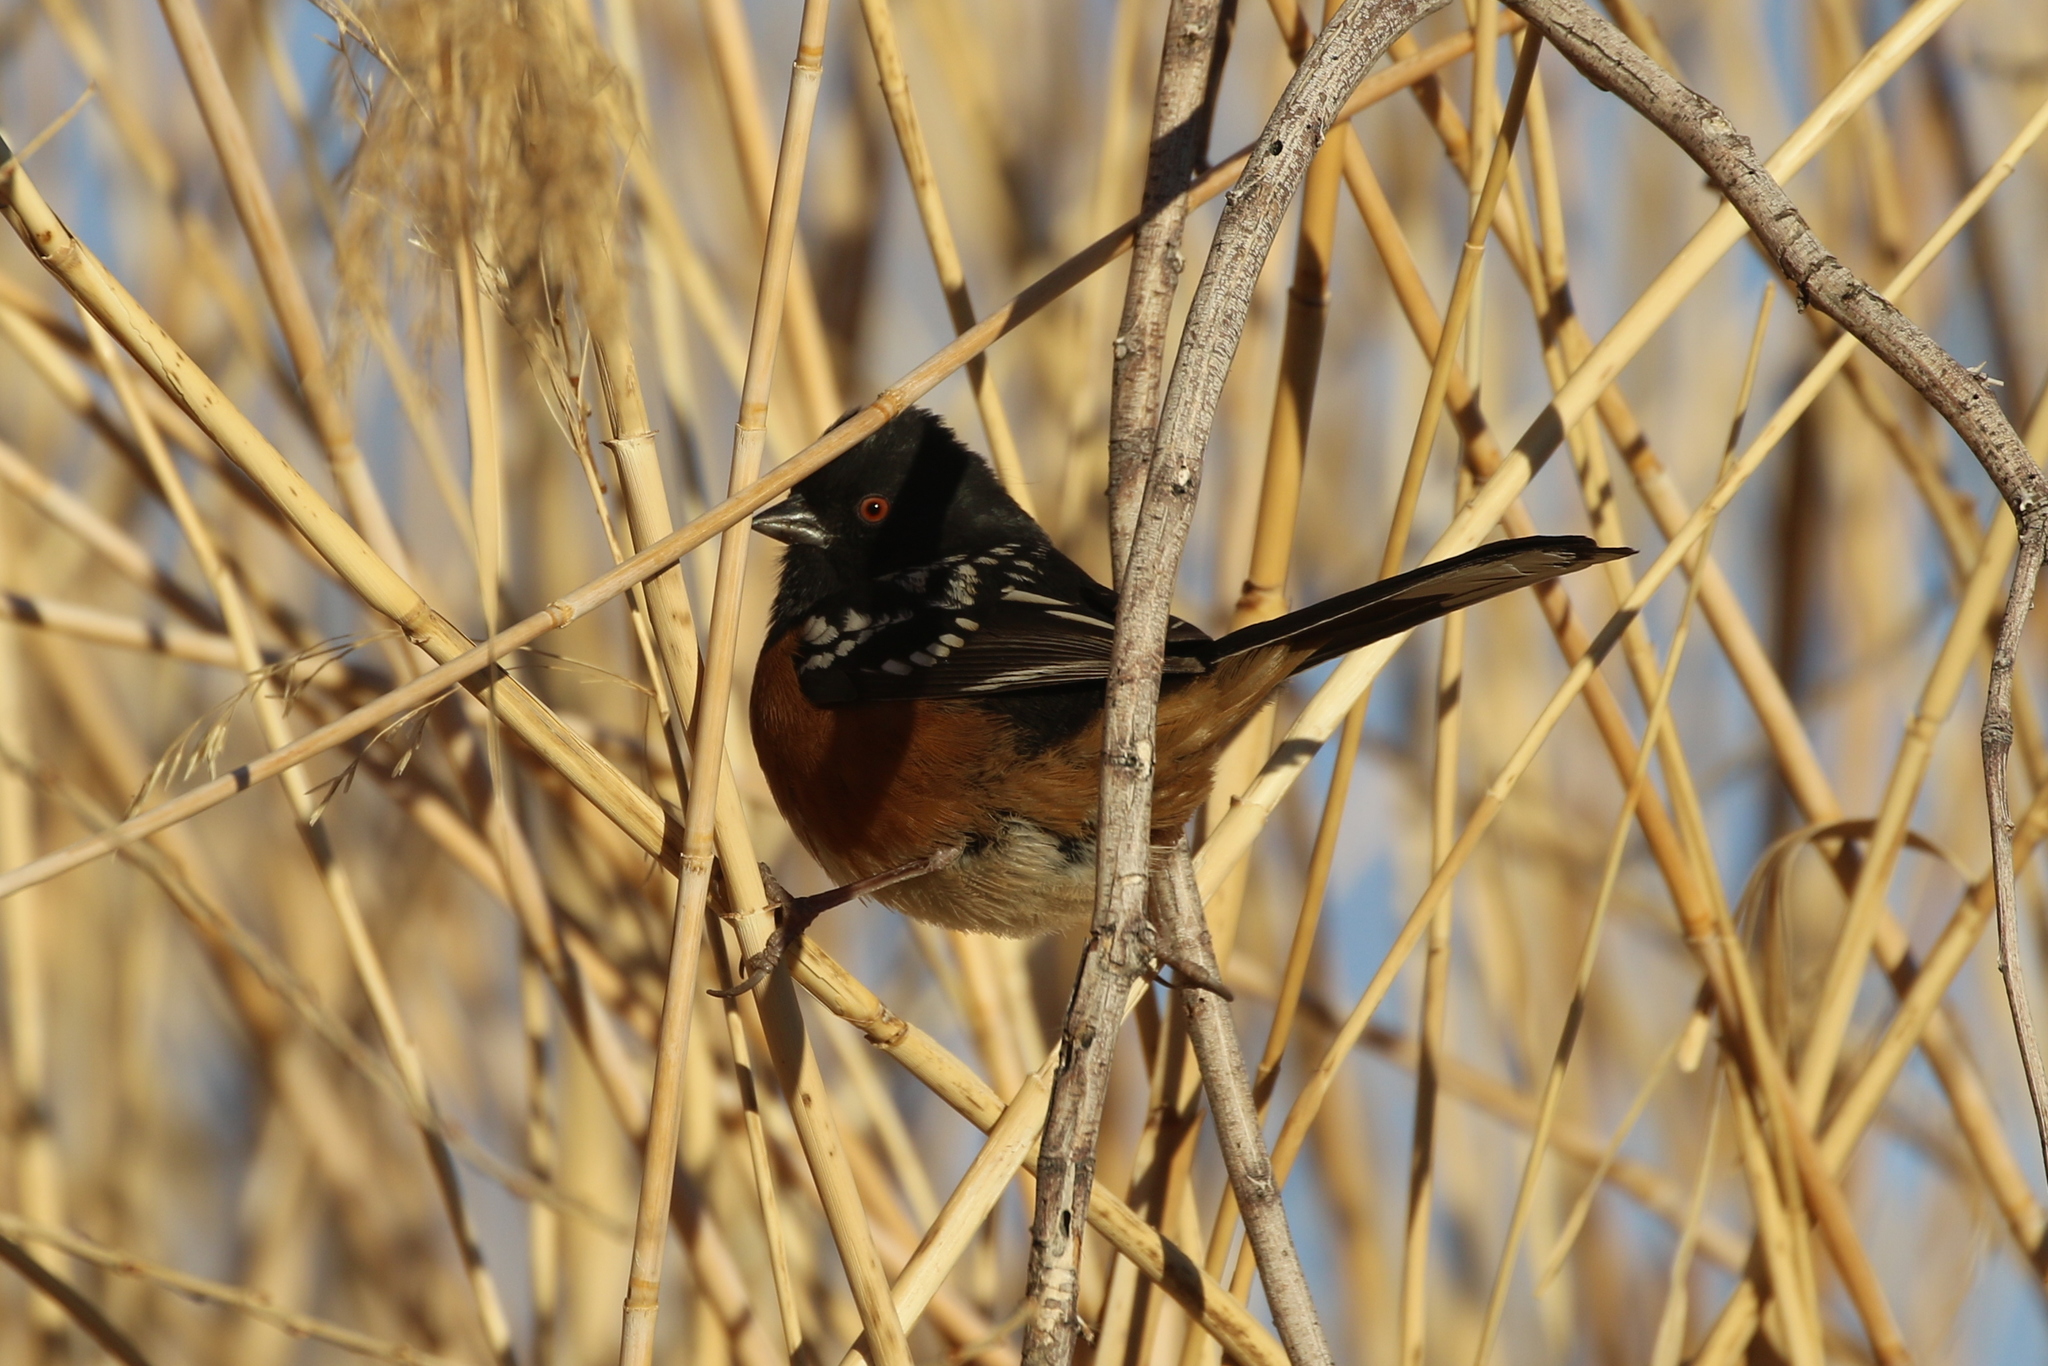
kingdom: Animalia
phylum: Chordata
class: Aves
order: Passeriformes
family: Passerellidae
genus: Pipilo
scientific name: Pipilo maculatus
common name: Spotted towhee
